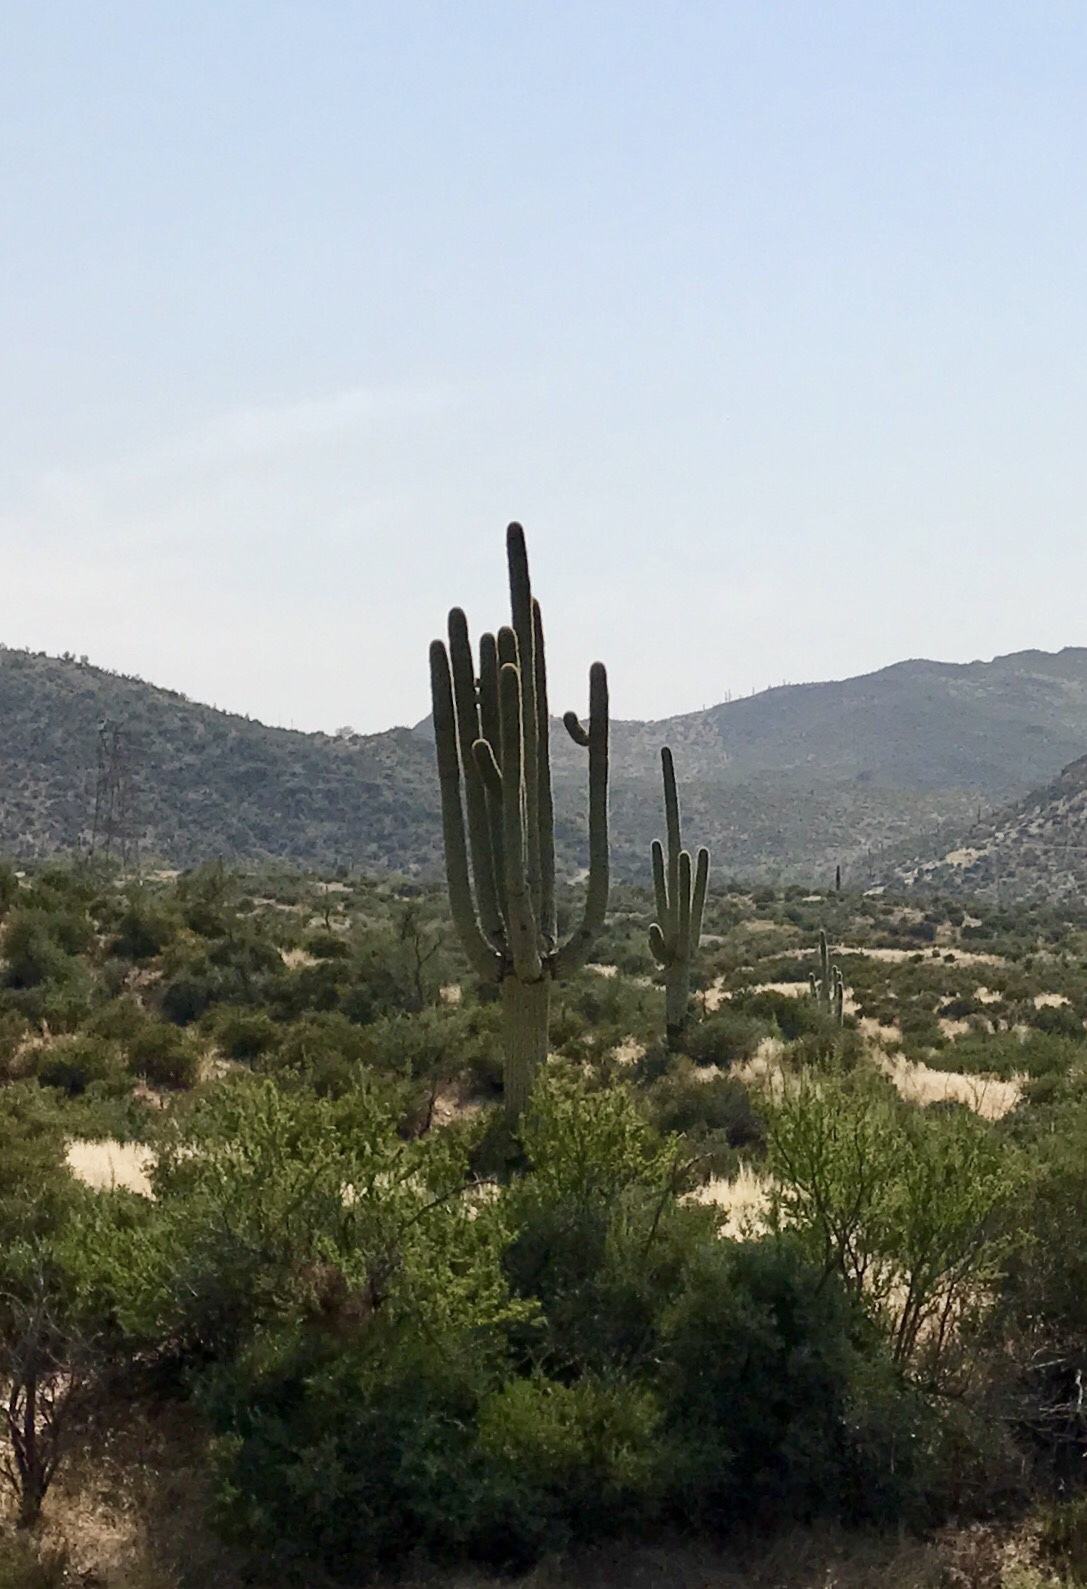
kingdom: Plantae
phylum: Tracheophyta
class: Magnoliopsida
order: Caryophyllales
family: Cactaceae
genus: Carnegiea
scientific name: Carnegiea gigantea
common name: Saguaro
